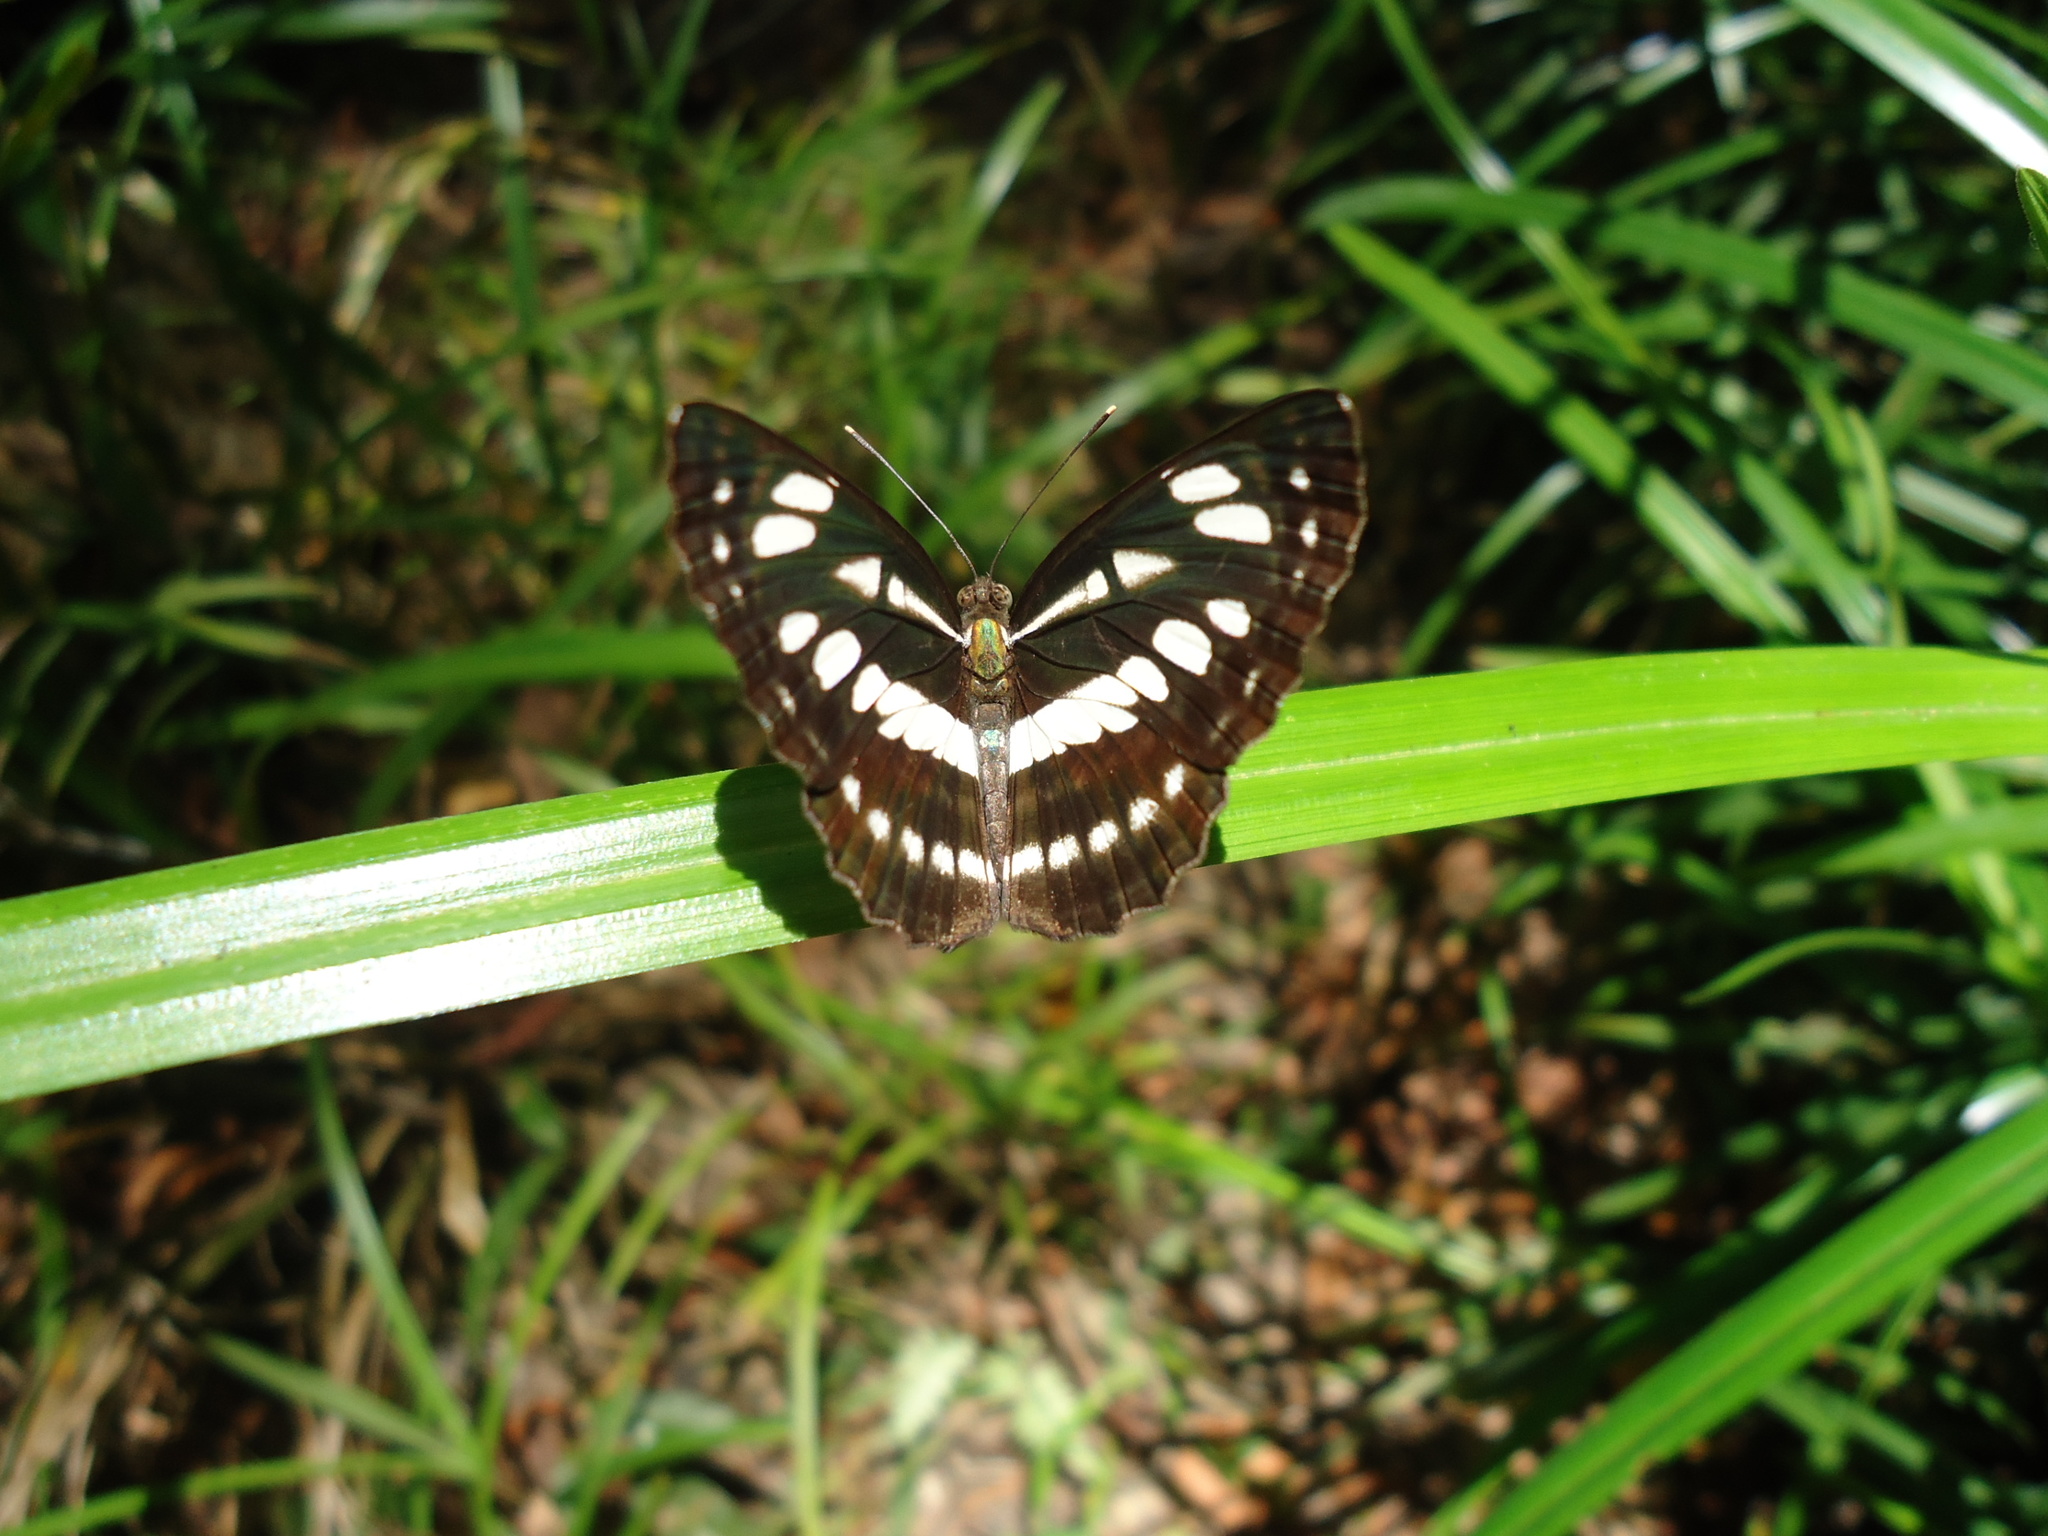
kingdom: Animalia
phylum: Arthropoda
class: Insecta
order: Lepidoptera
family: Nymphalidae
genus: Neptis
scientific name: Neptis hylas
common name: Common sailer
